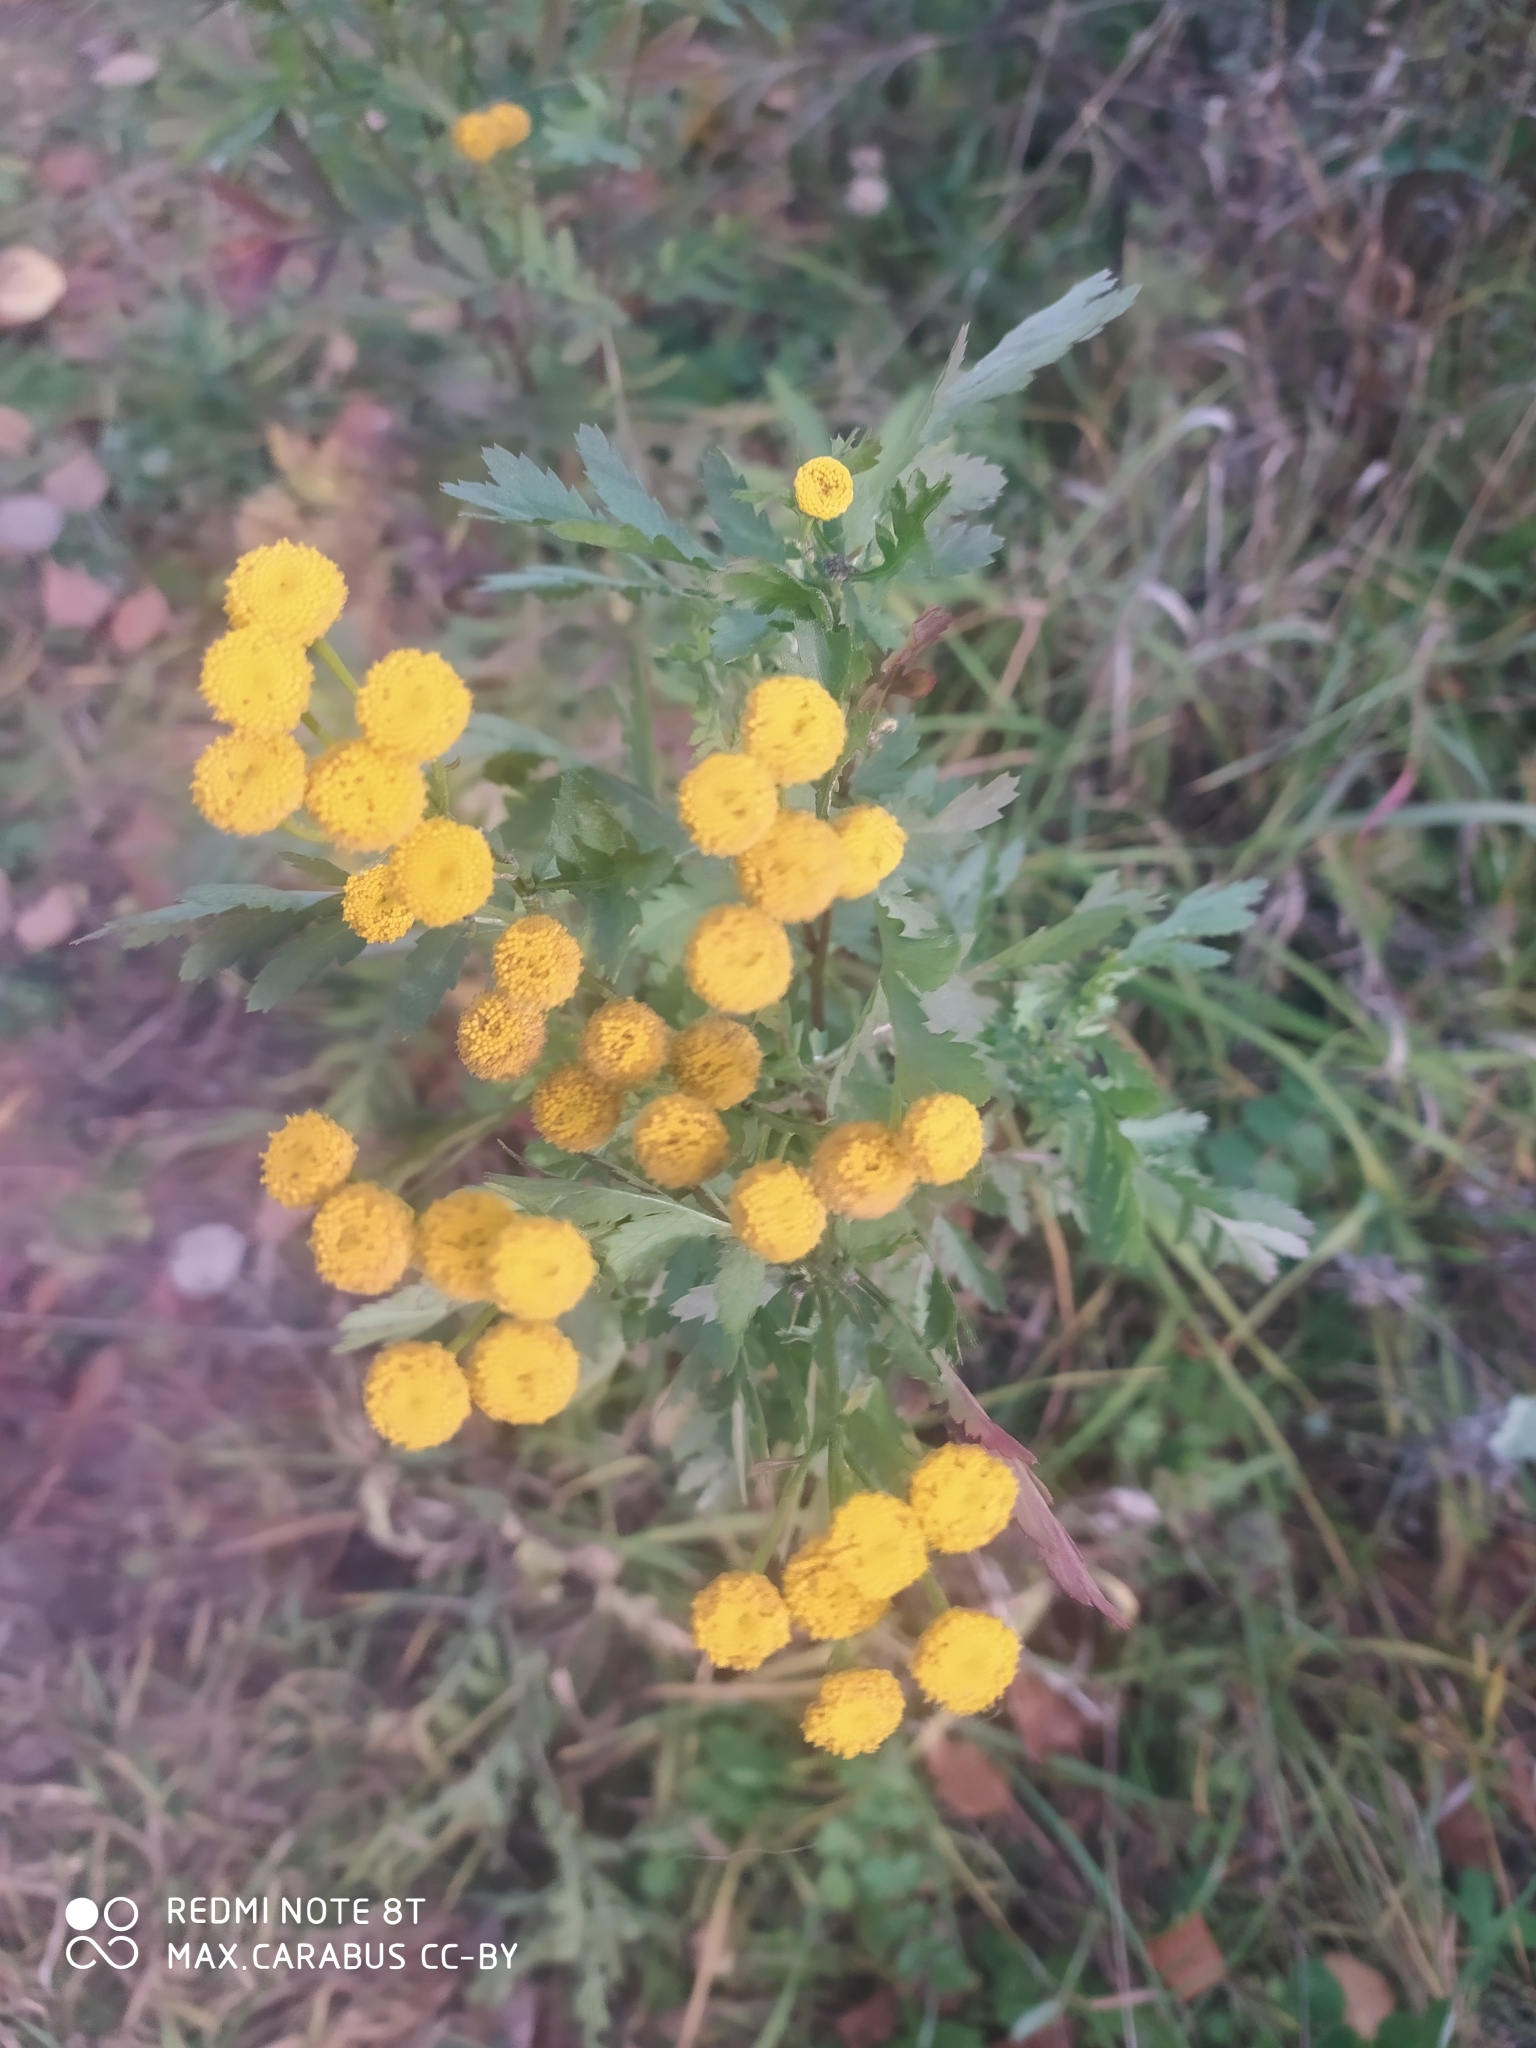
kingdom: Plantae
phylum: Tracheophyta
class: Magnoliopsida
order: Asterales
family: Asteraceae
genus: Tanacetum
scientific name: Tanacetum vulgare
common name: Common tansy
